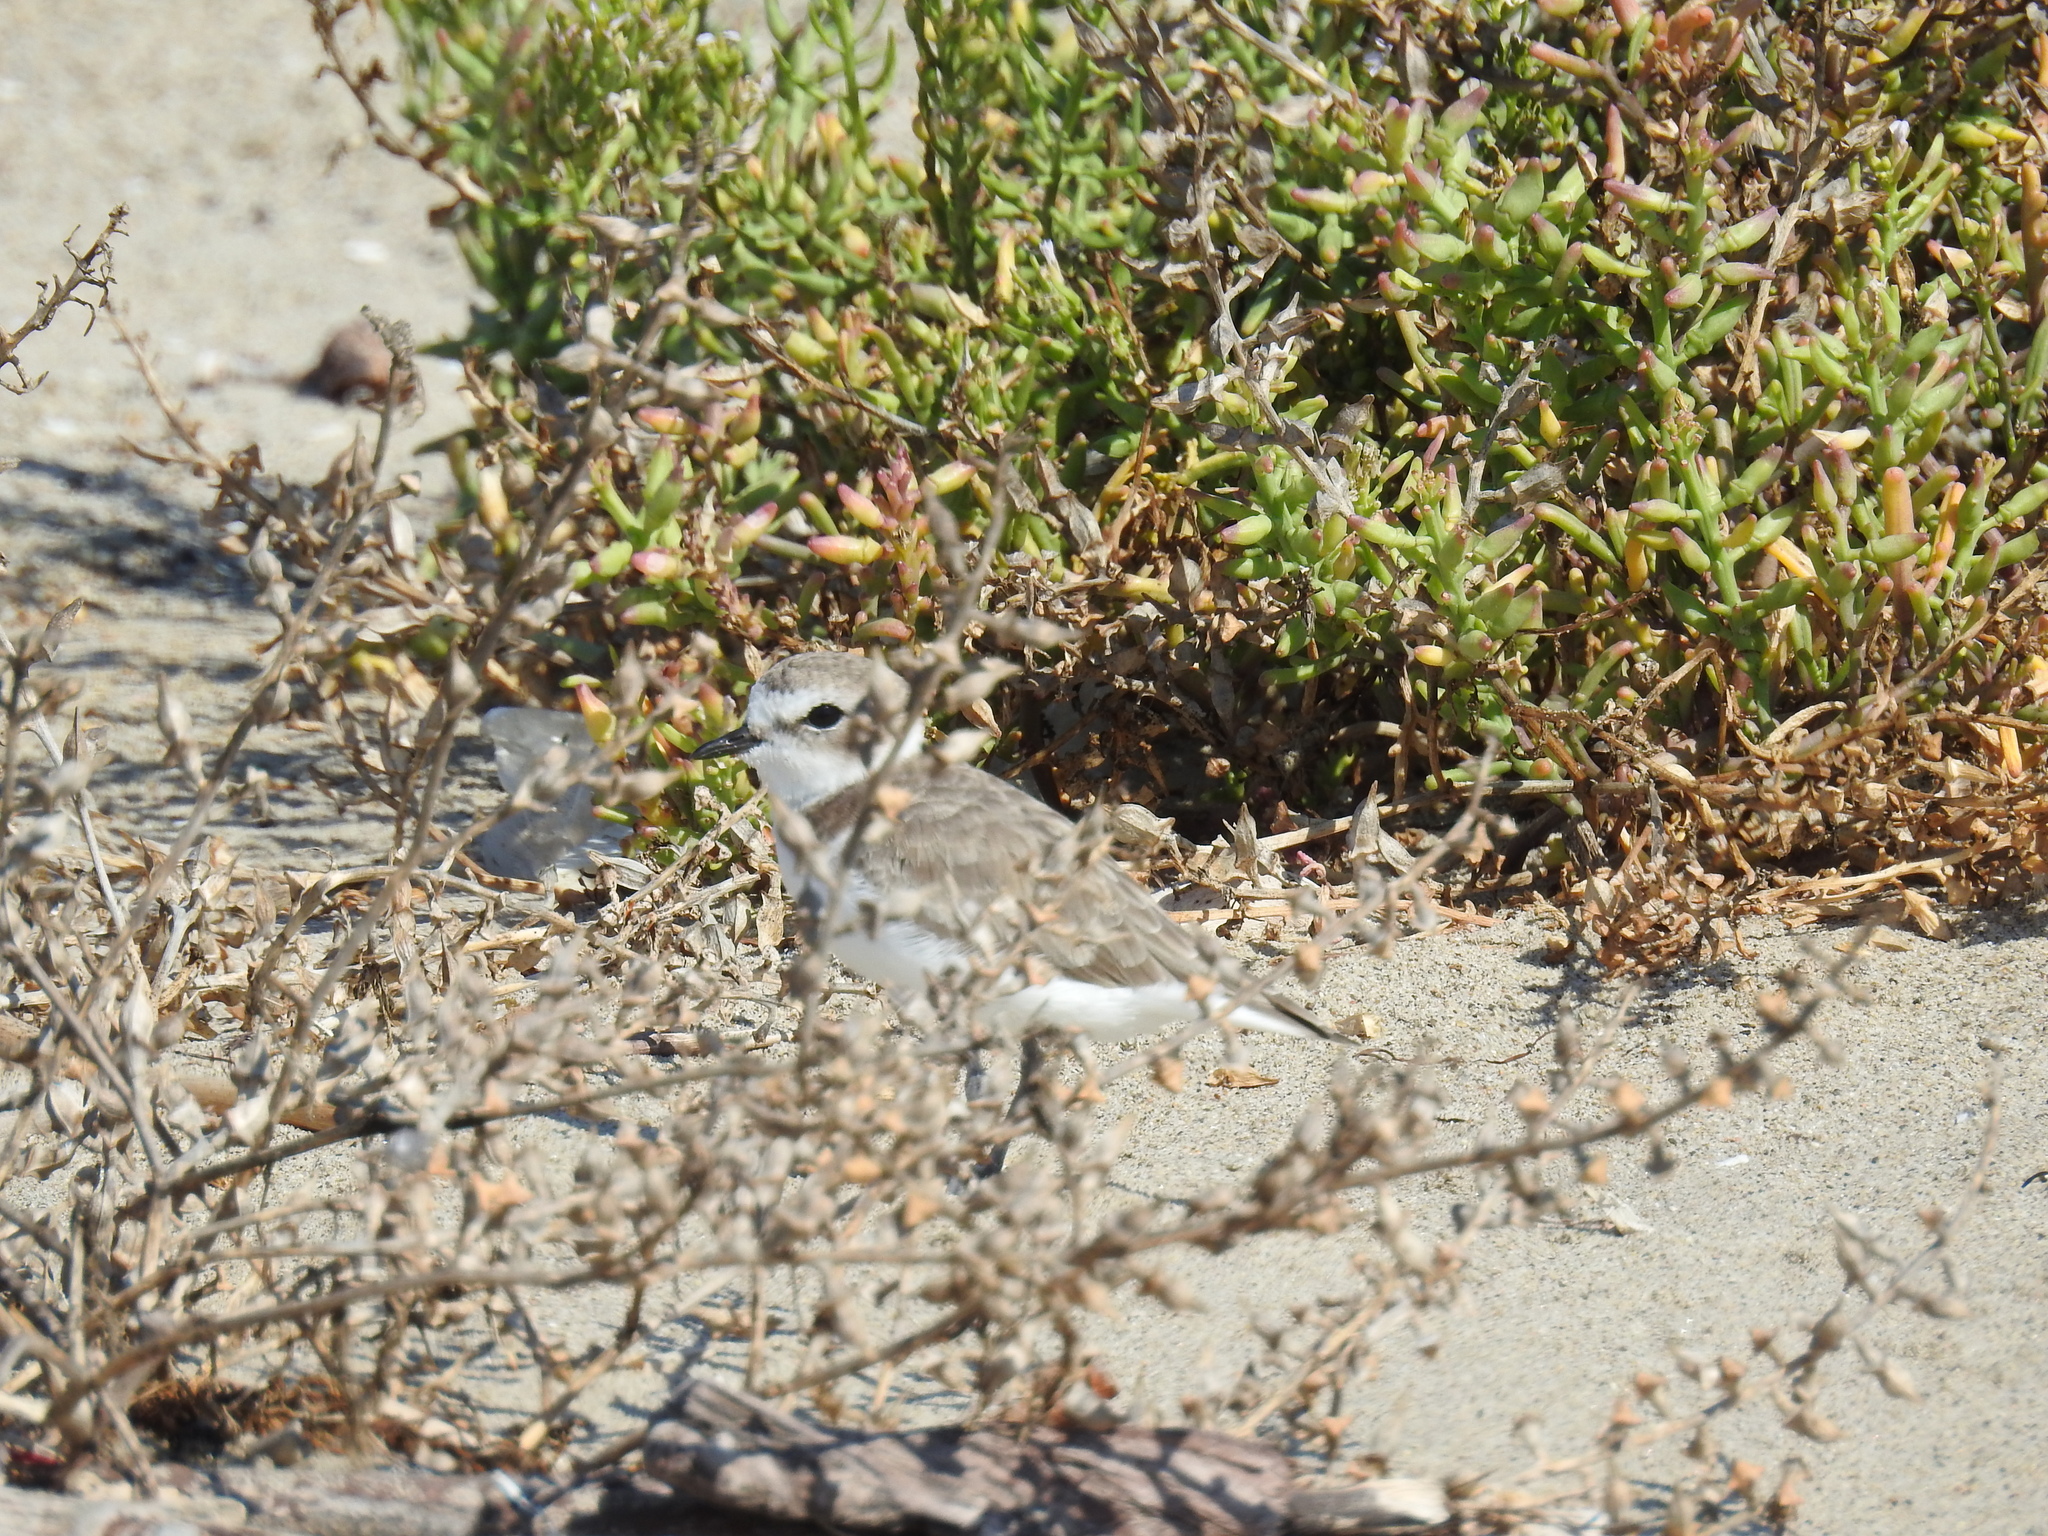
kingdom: Animalia
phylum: Chordata
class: Aves
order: Charadriiformes
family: Charadriidae
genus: Anarhynchus
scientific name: Anarhynchus
